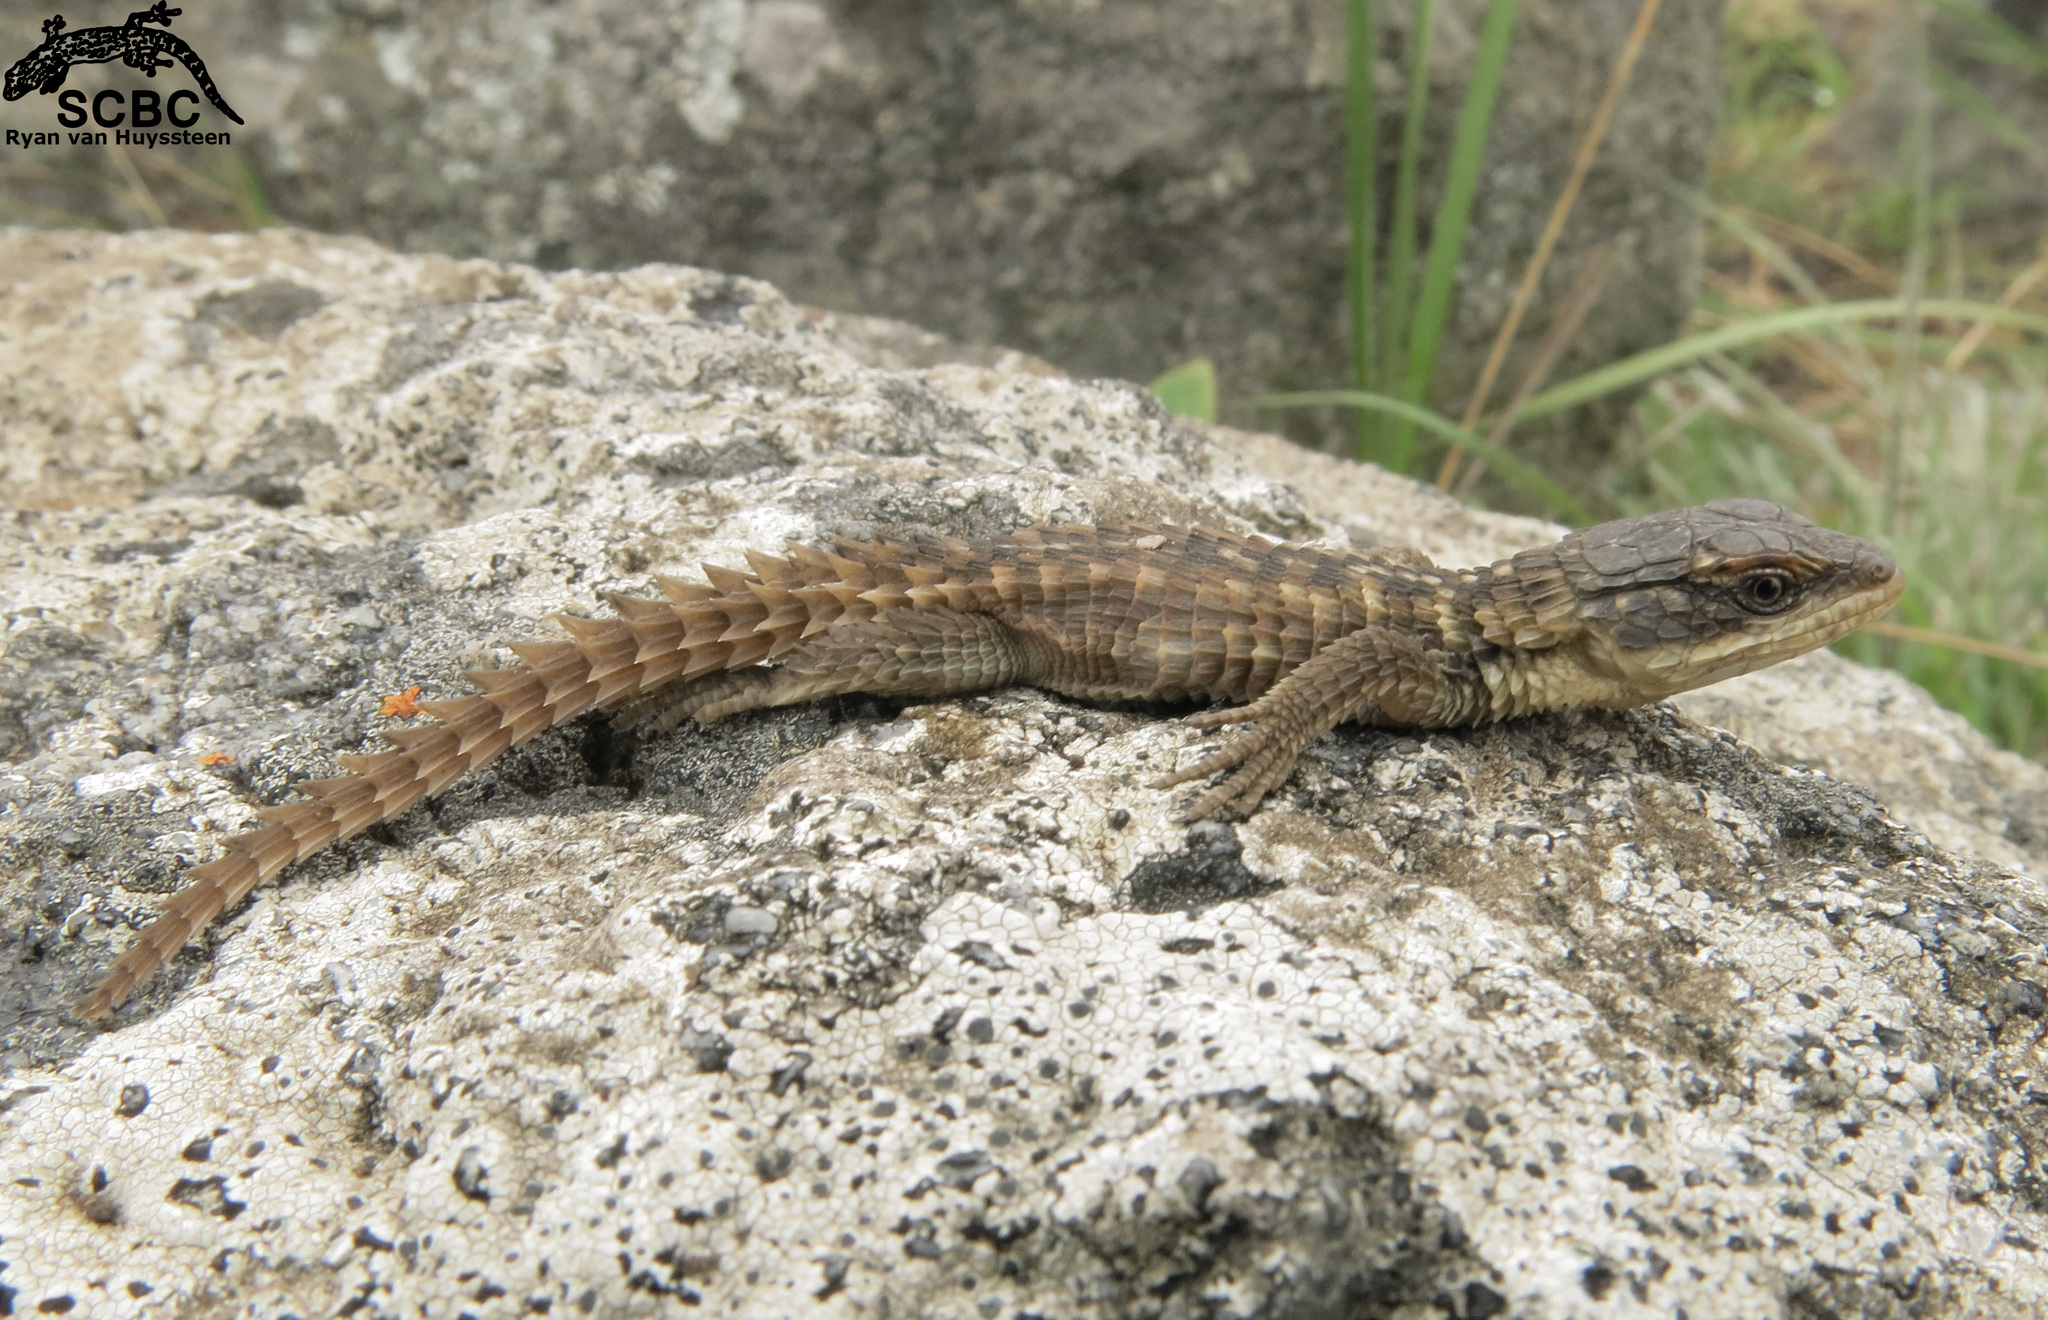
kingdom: Animalia
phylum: Chordata
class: Squamata
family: Cordylidae
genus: Cordylus
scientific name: Cordylus vittifer
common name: Common girdled lizard
